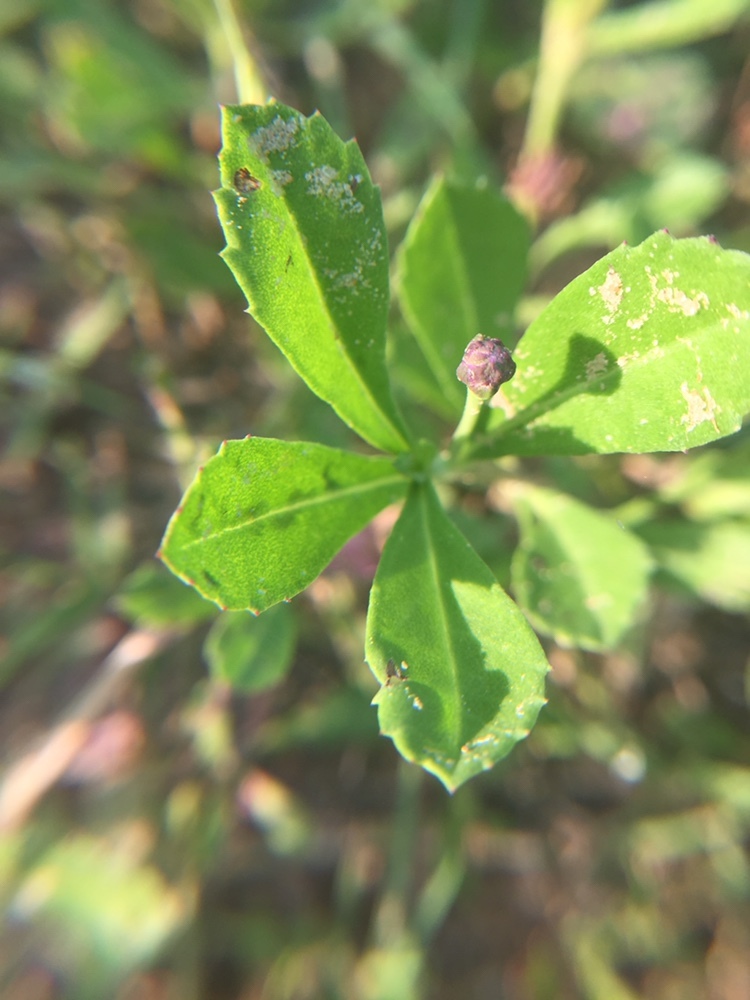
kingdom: Plantae
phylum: Tracheophyta
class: Magnoliopsida
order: Lamiales
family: Verbenaceae
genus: Phyla
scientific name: Phyla nodiflora
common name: Frogfruit
